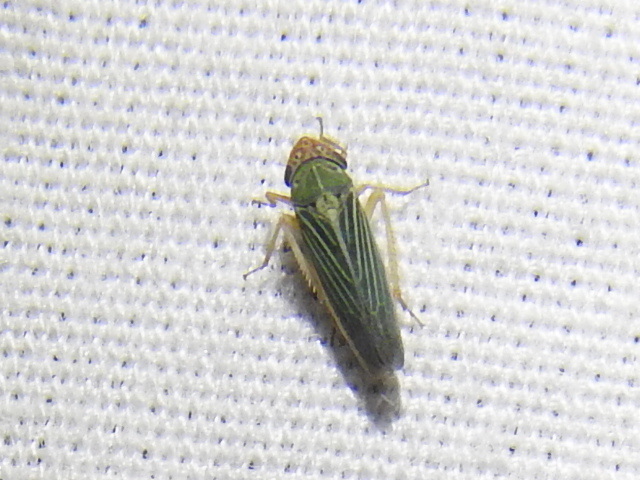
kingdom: Animalia
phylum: Arthropoda
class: Insecta
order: Hemiptera
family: Cicadellidae
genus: Xyphon
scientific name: Xyphon reticulatum
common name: Planthopper
